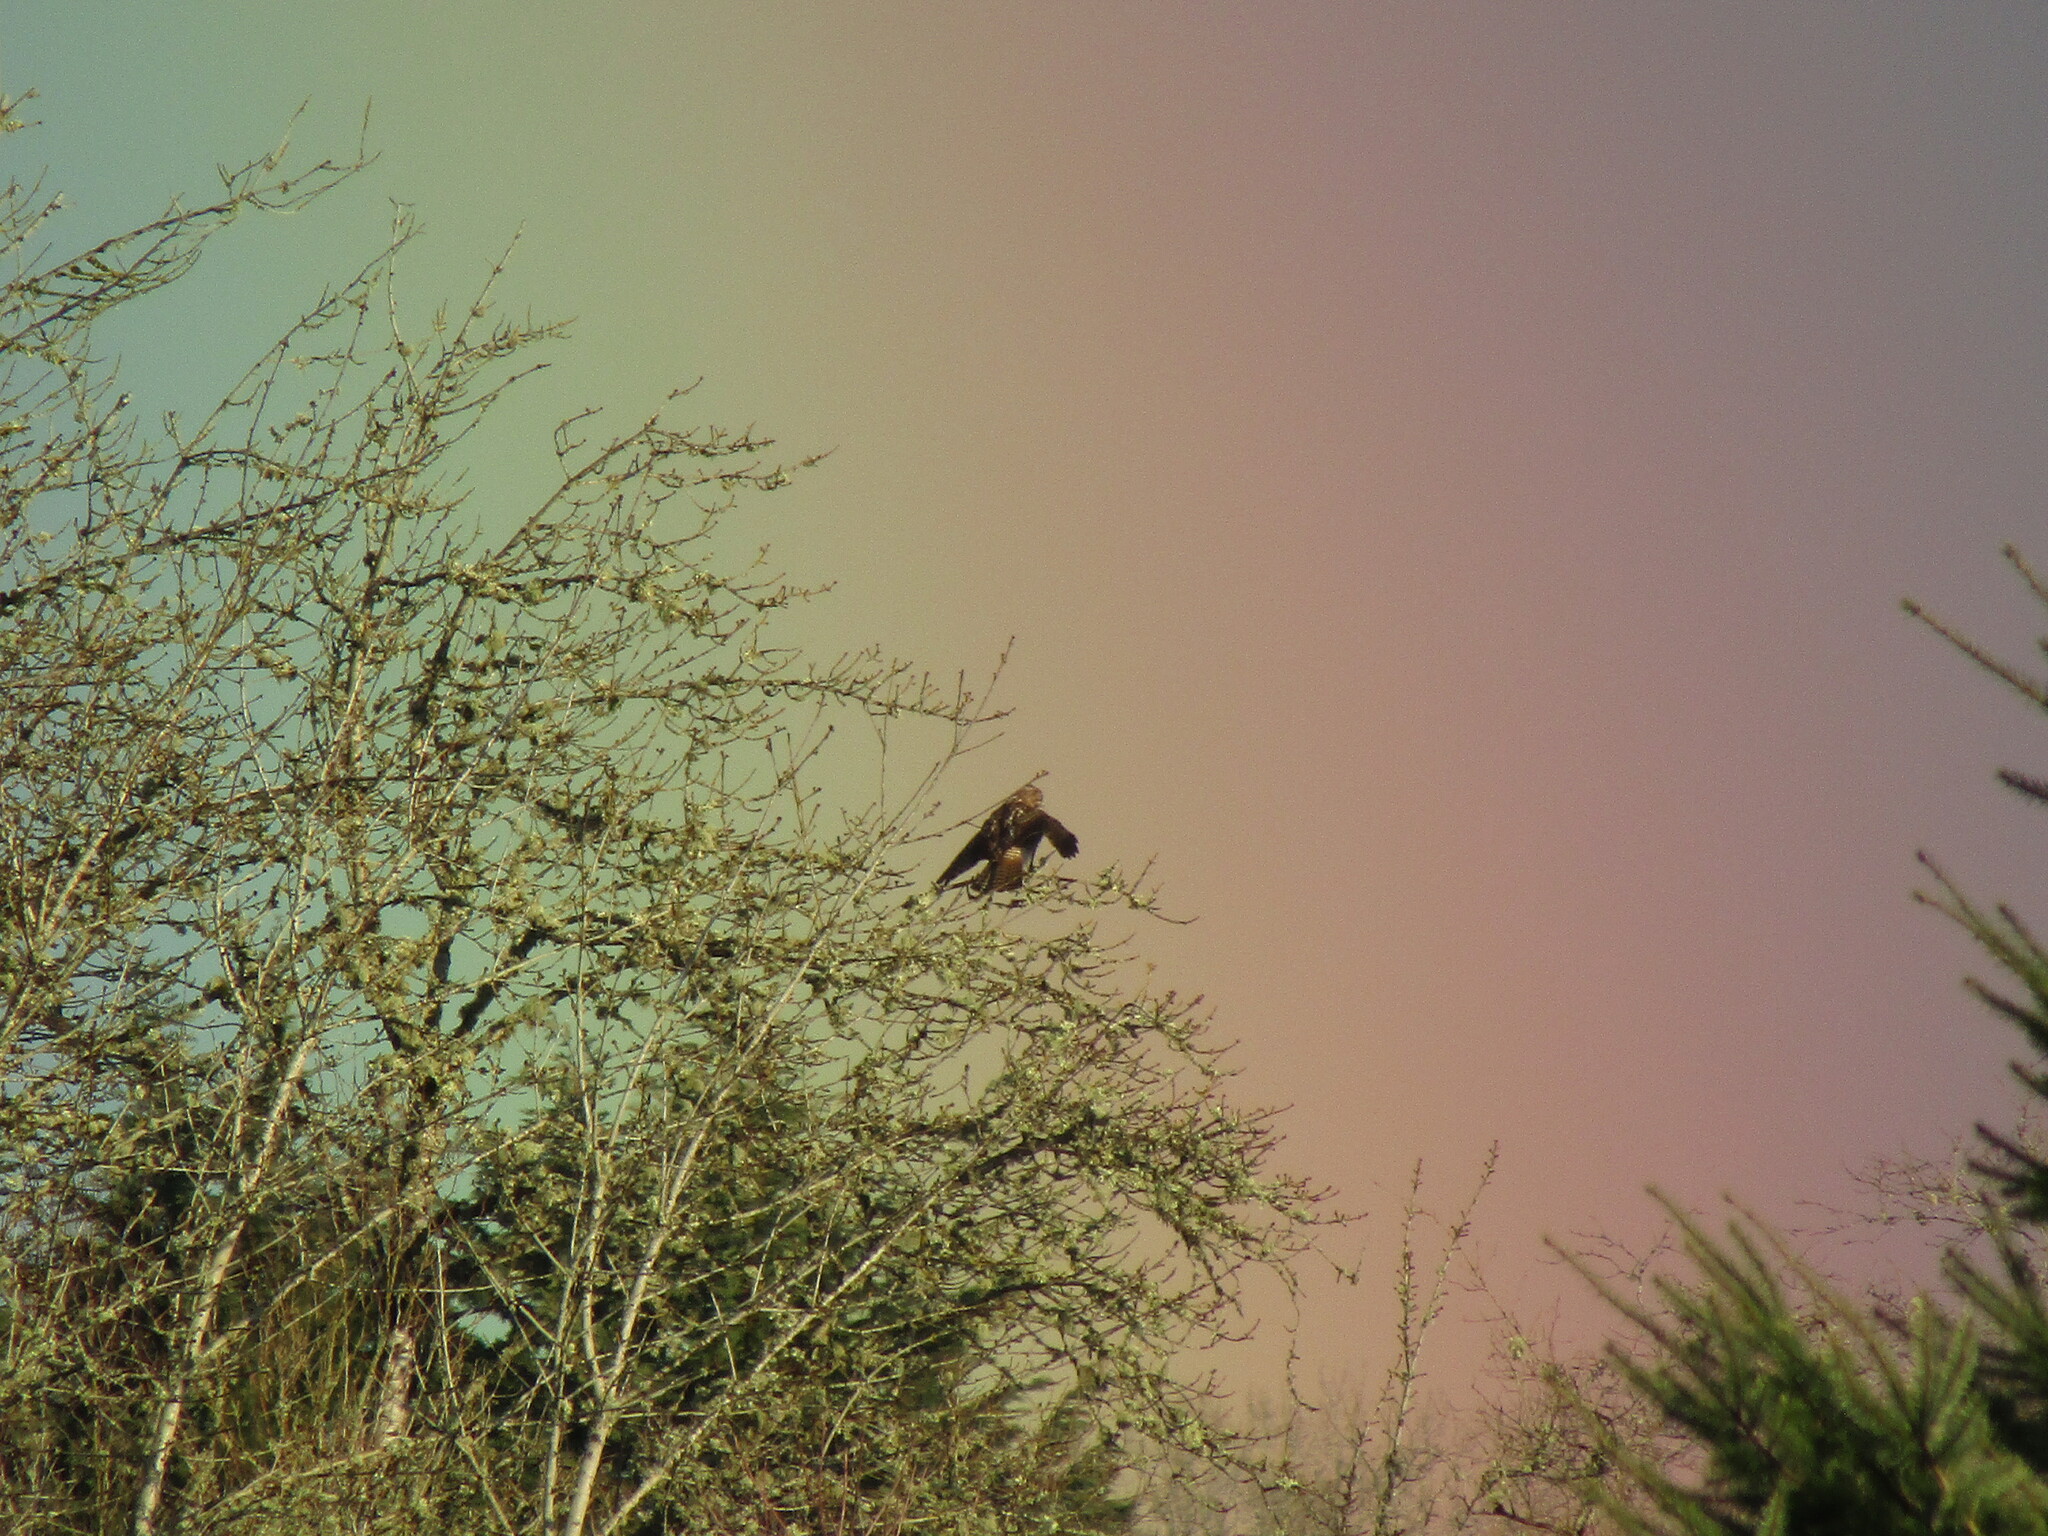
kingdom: Animalia
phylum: Chordata
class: Aves
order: Accipitriformes
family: Accipitridae
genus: Buteo
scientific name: Buteo jamaicensis
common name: Red-tailed hawk
